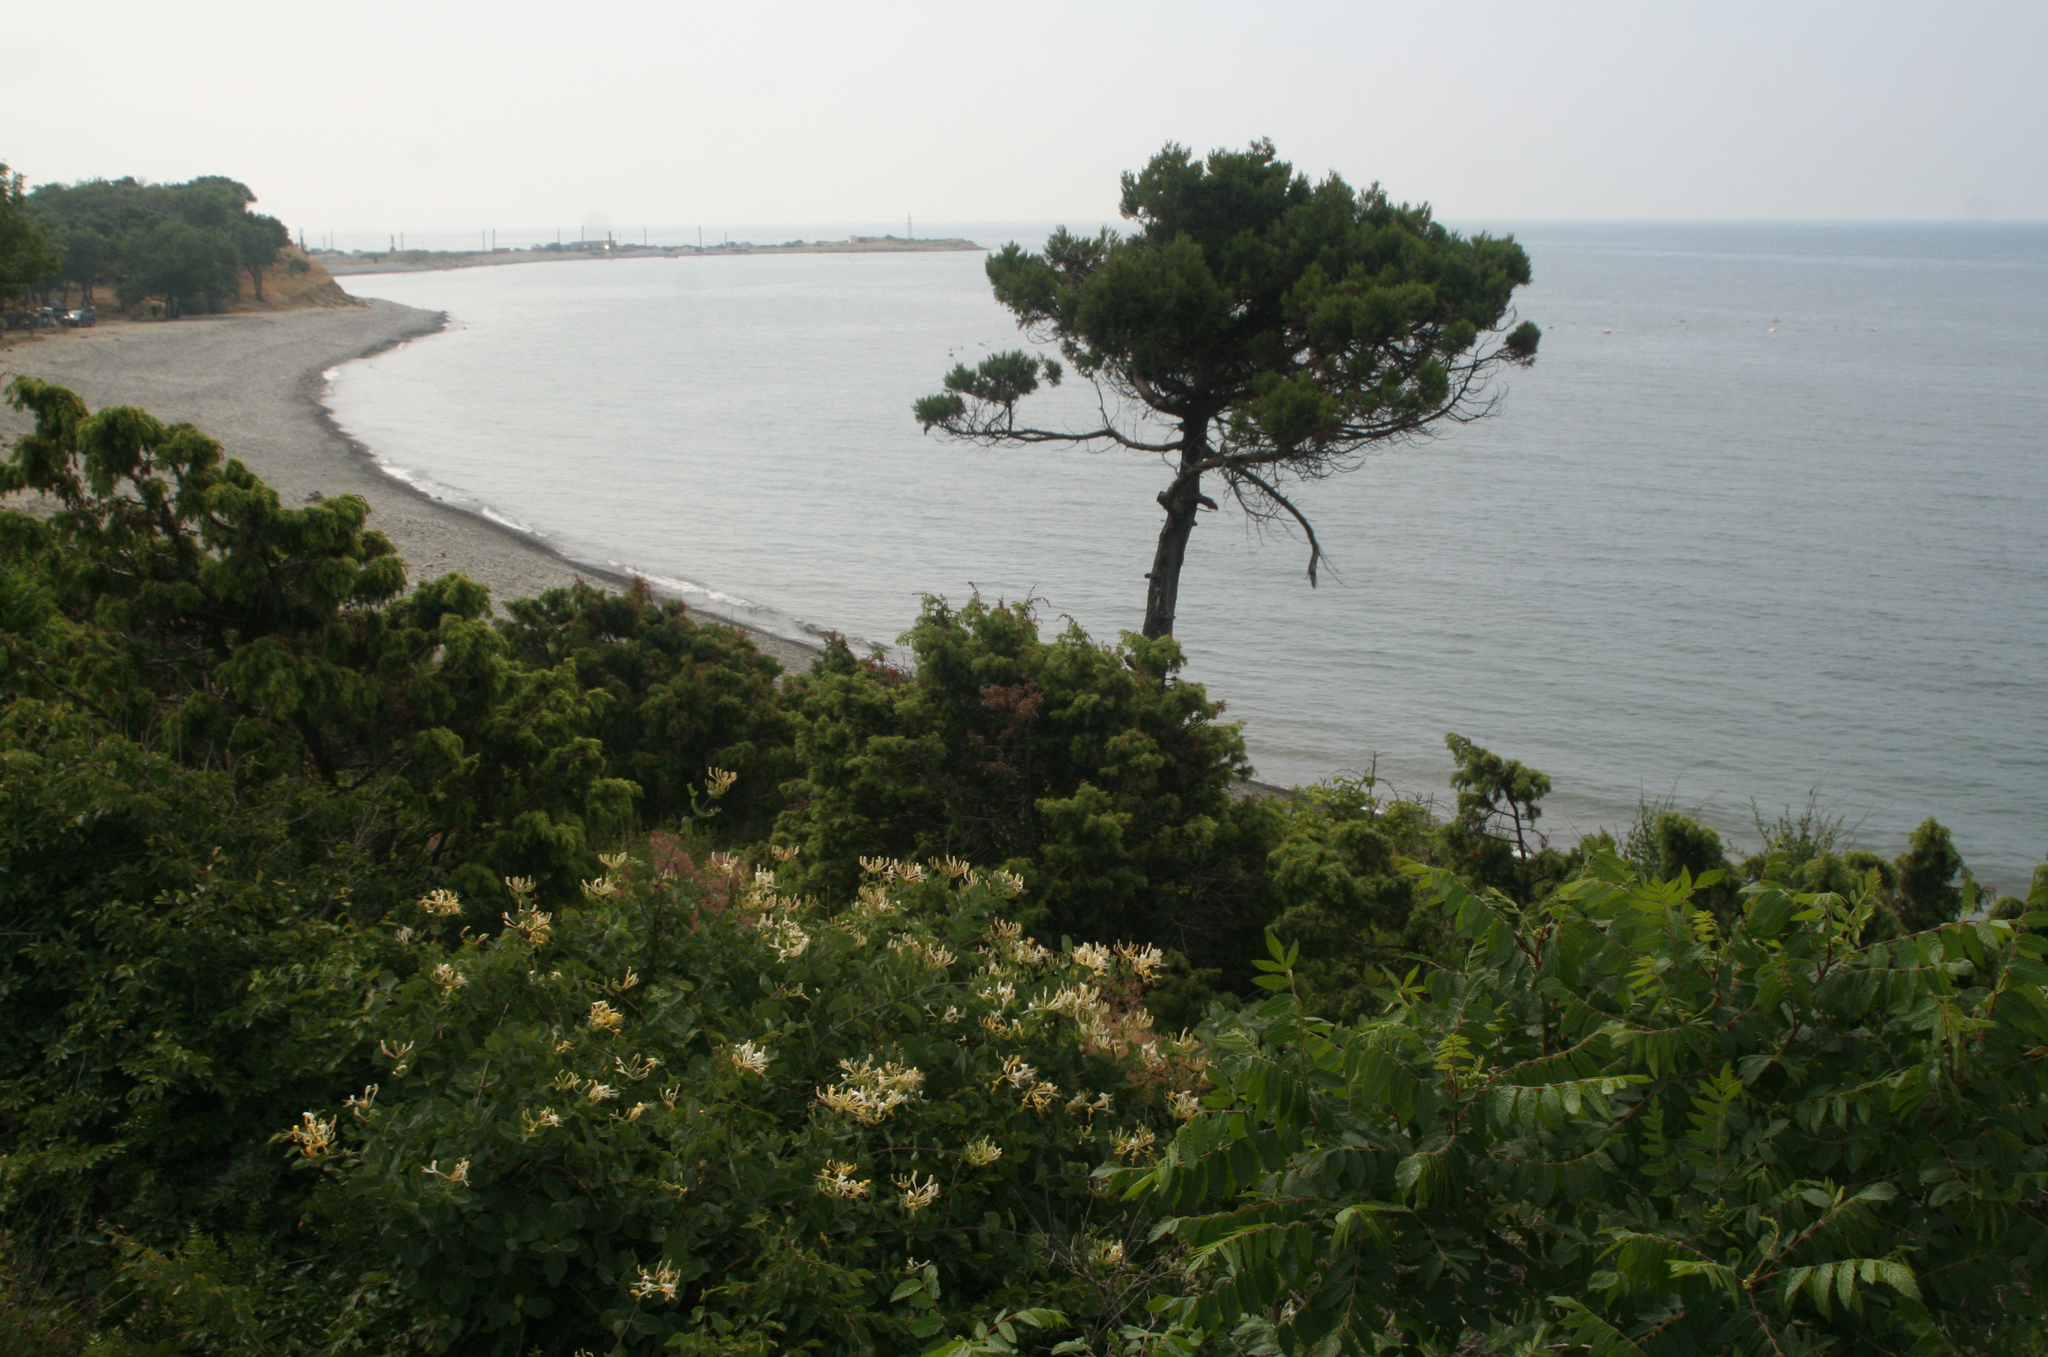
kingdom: Plantae
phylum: Tracheophyta
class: Pinopsida
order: Pinales
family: Pinaceae
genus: Pinus
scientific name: Pinus brutia
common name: Turkish pine
